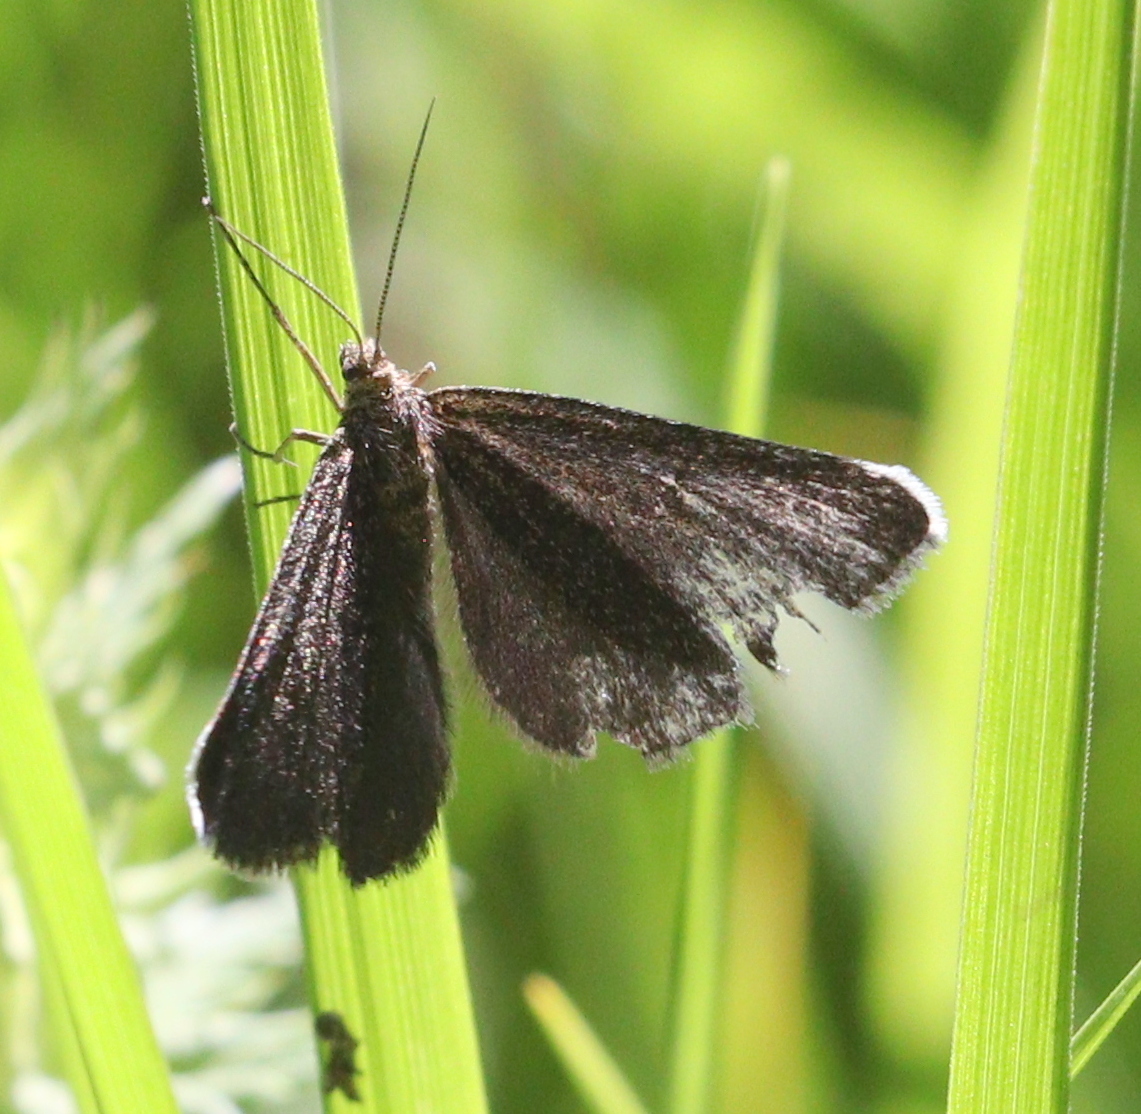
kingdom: Animalia
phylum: Arthropoda
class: Insecta
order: Lepidoptera
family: Geometridae
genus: Odezia
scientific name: Odezia atrata
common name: Chimney sweeper
